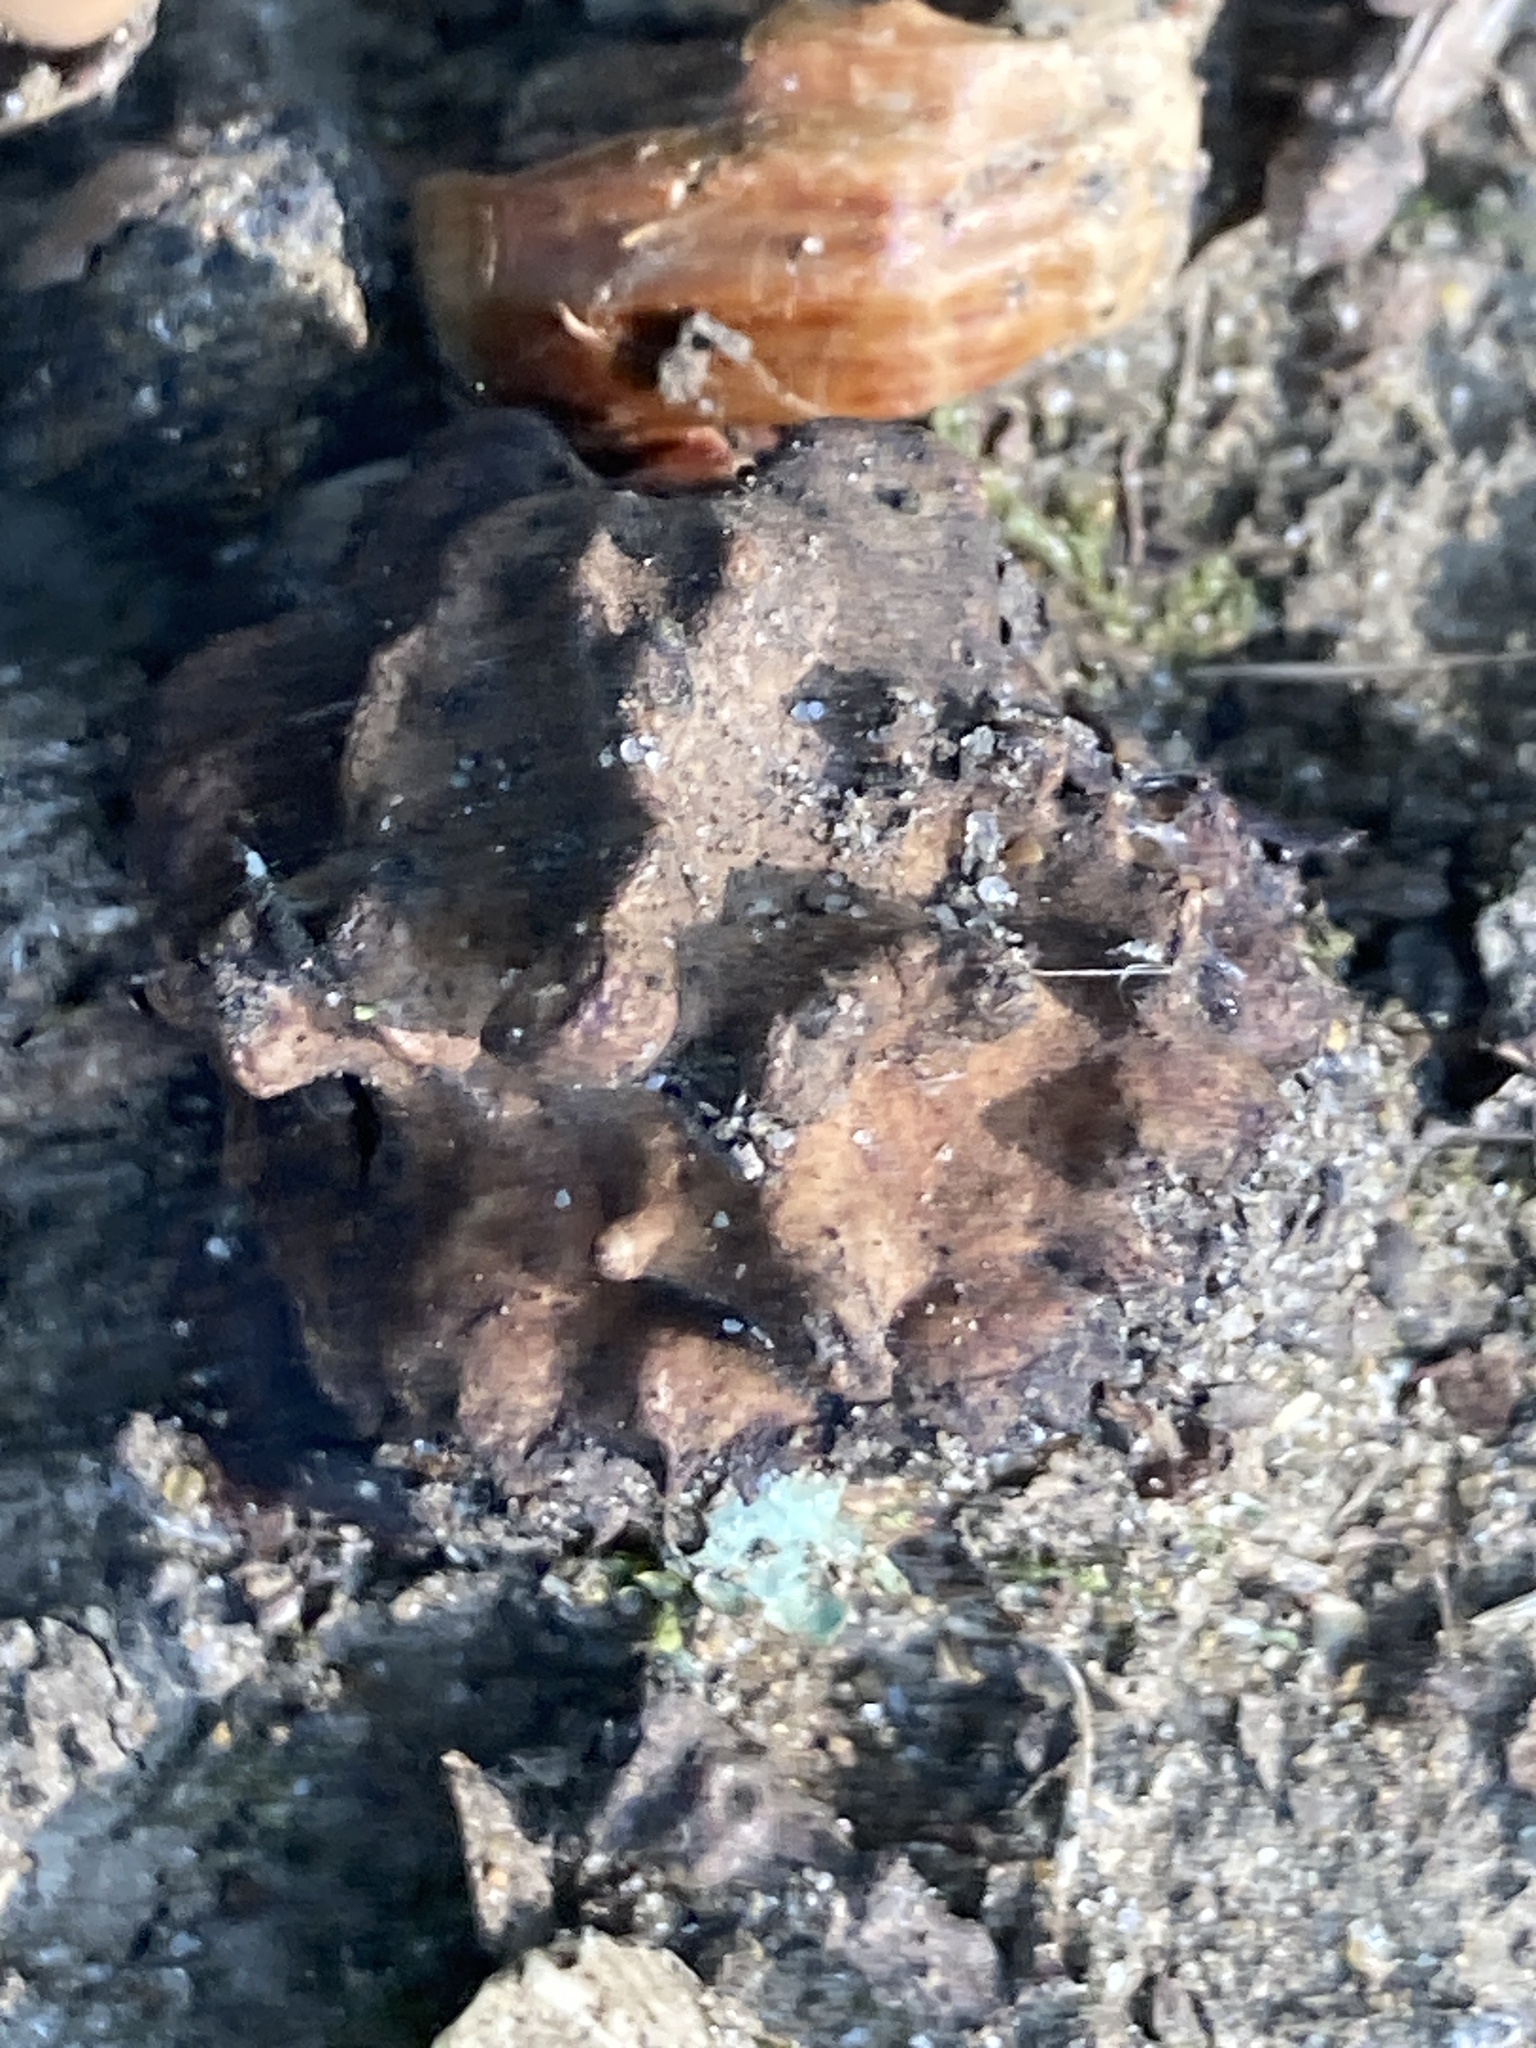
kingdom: Animalia
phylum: Arthropoda
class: Insecta
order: Hymenoptera
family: Cynipidae
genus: Andricus
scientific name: Andricus quercuscalicis
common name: Knopper gall
